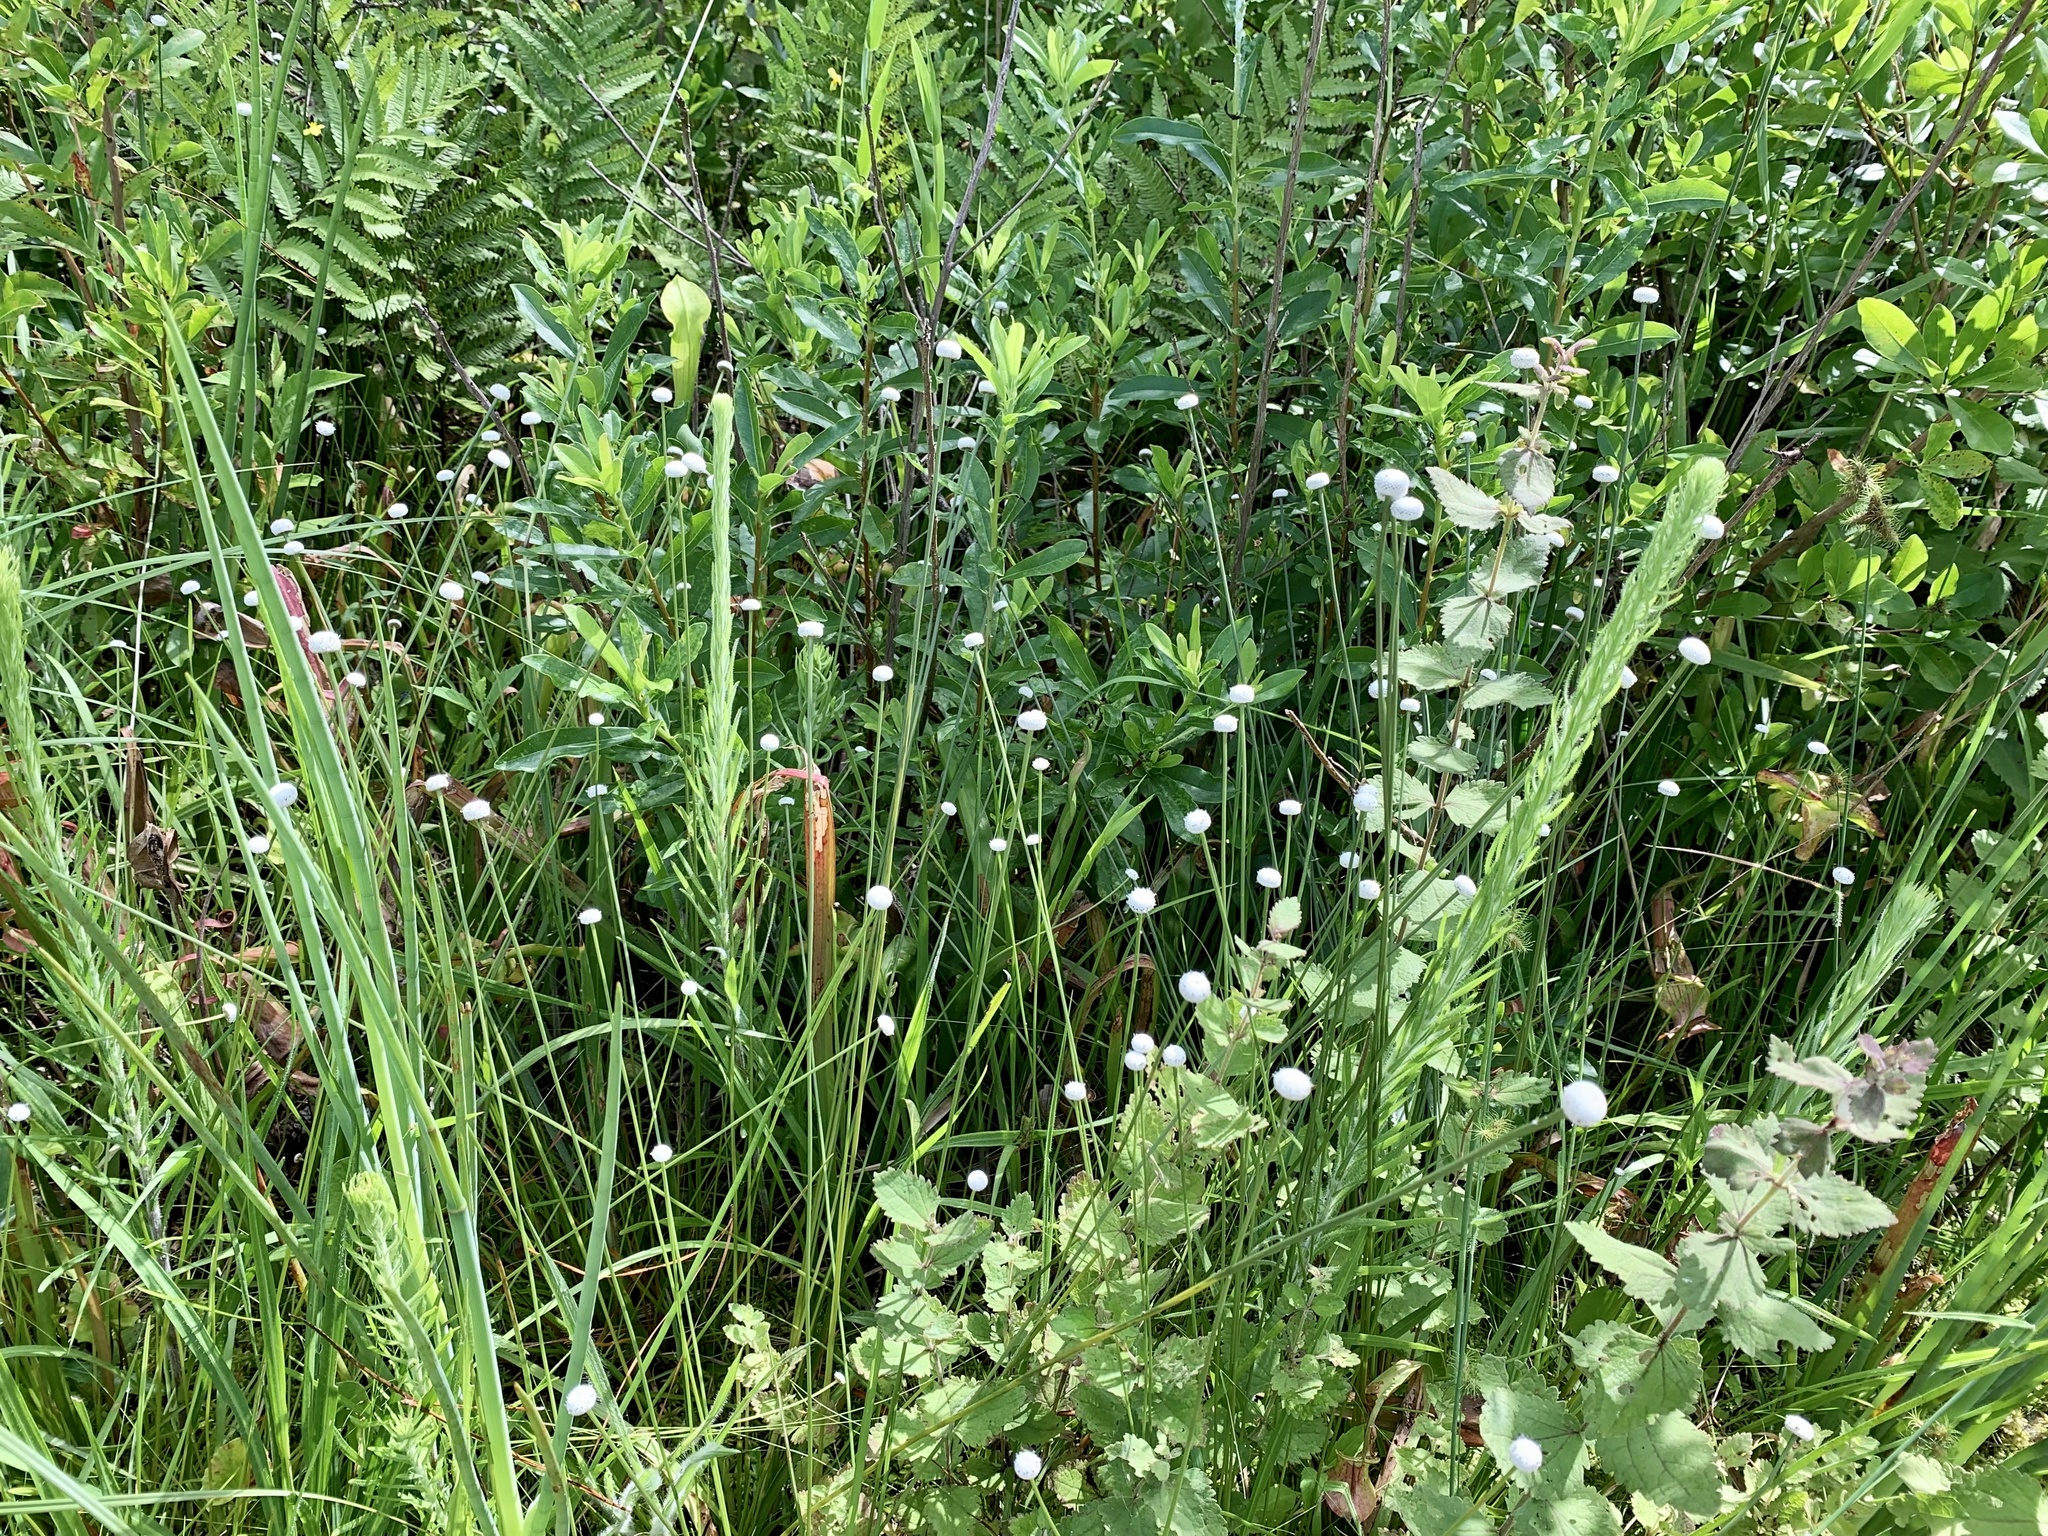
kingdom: Plantae
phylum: Tracheophyta
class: Liliopsida
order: Poales
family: Eriocaulaceae
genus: Eriocaulon
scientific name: Eriocaulon decangulare
